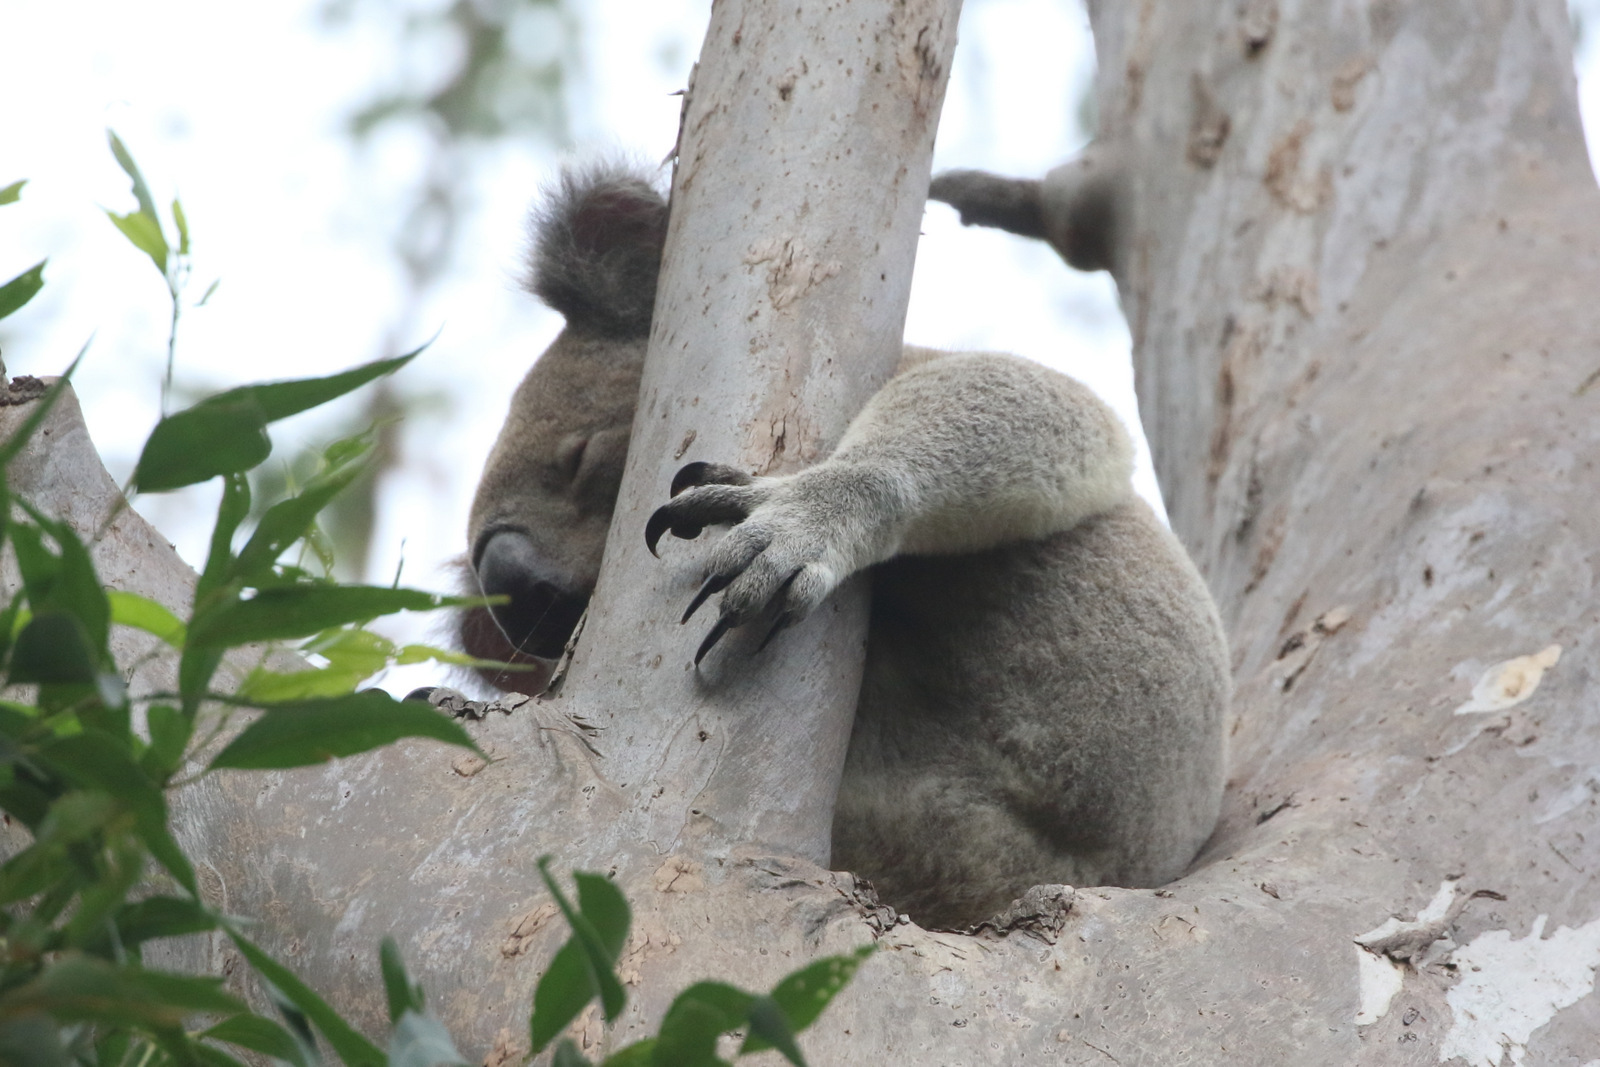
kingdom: Animalia
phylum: Chordata
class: Mammalia
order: Diprotodontia
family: Phascolarctidae
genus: Phascolarctos
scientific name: Phascolarctos cinereus
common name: Koala
